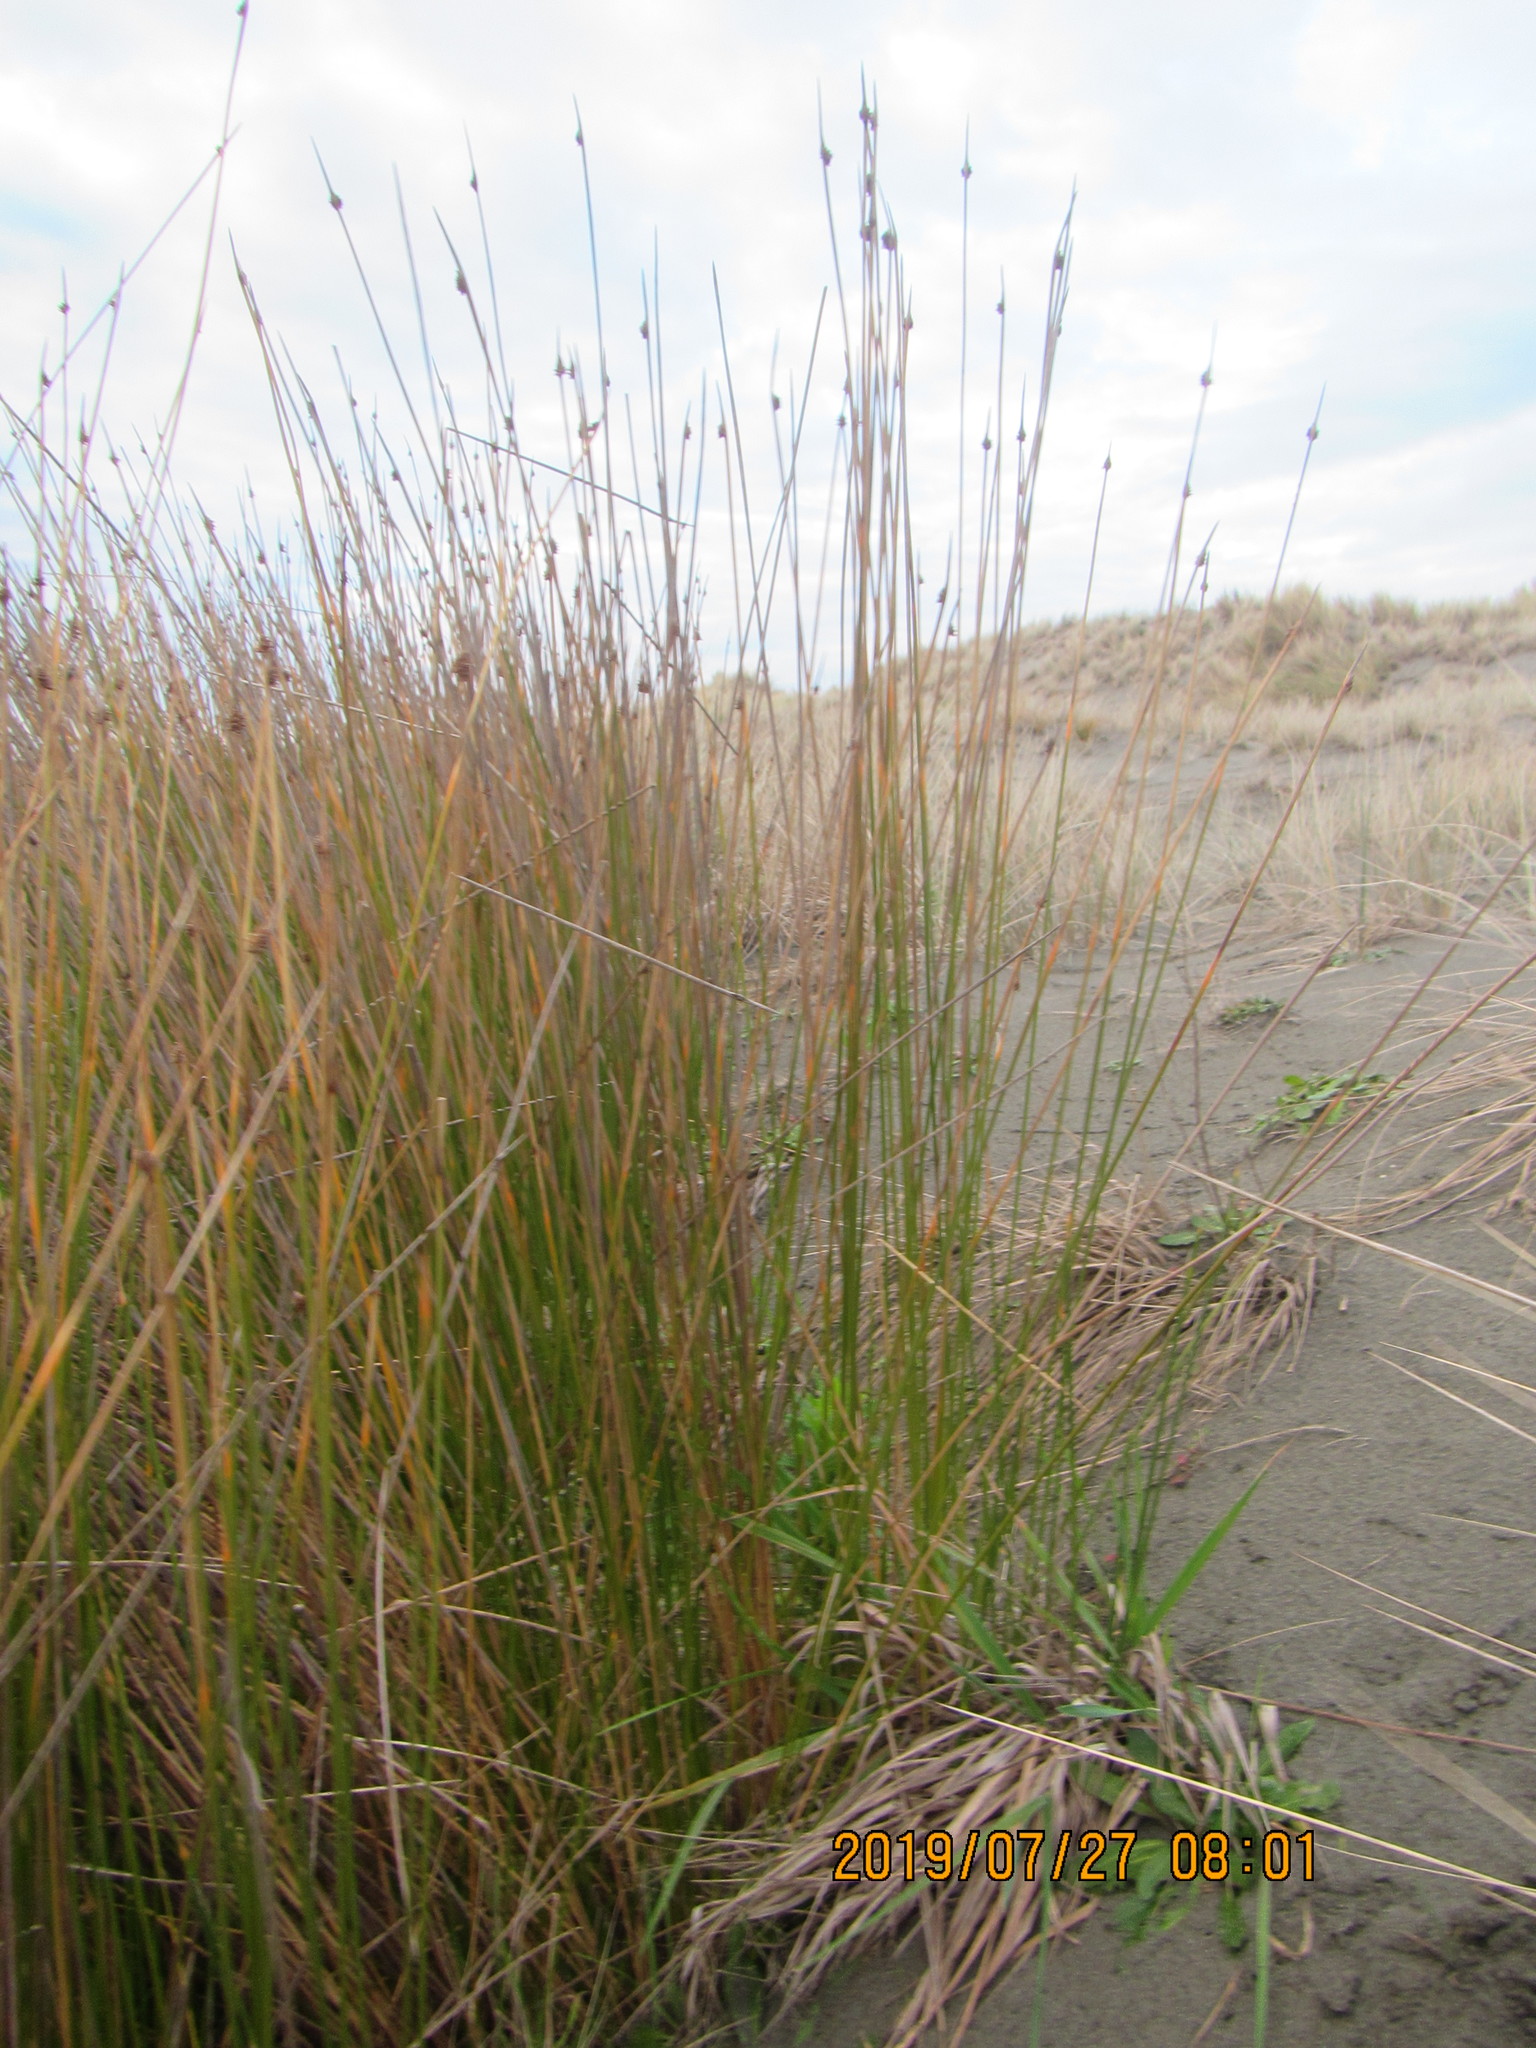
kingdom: Plantae
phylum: Tracheophyta
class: Liliopsida
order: Poales
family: Cyperaceae
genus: Ficinia
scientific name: Ficinia nodosa
